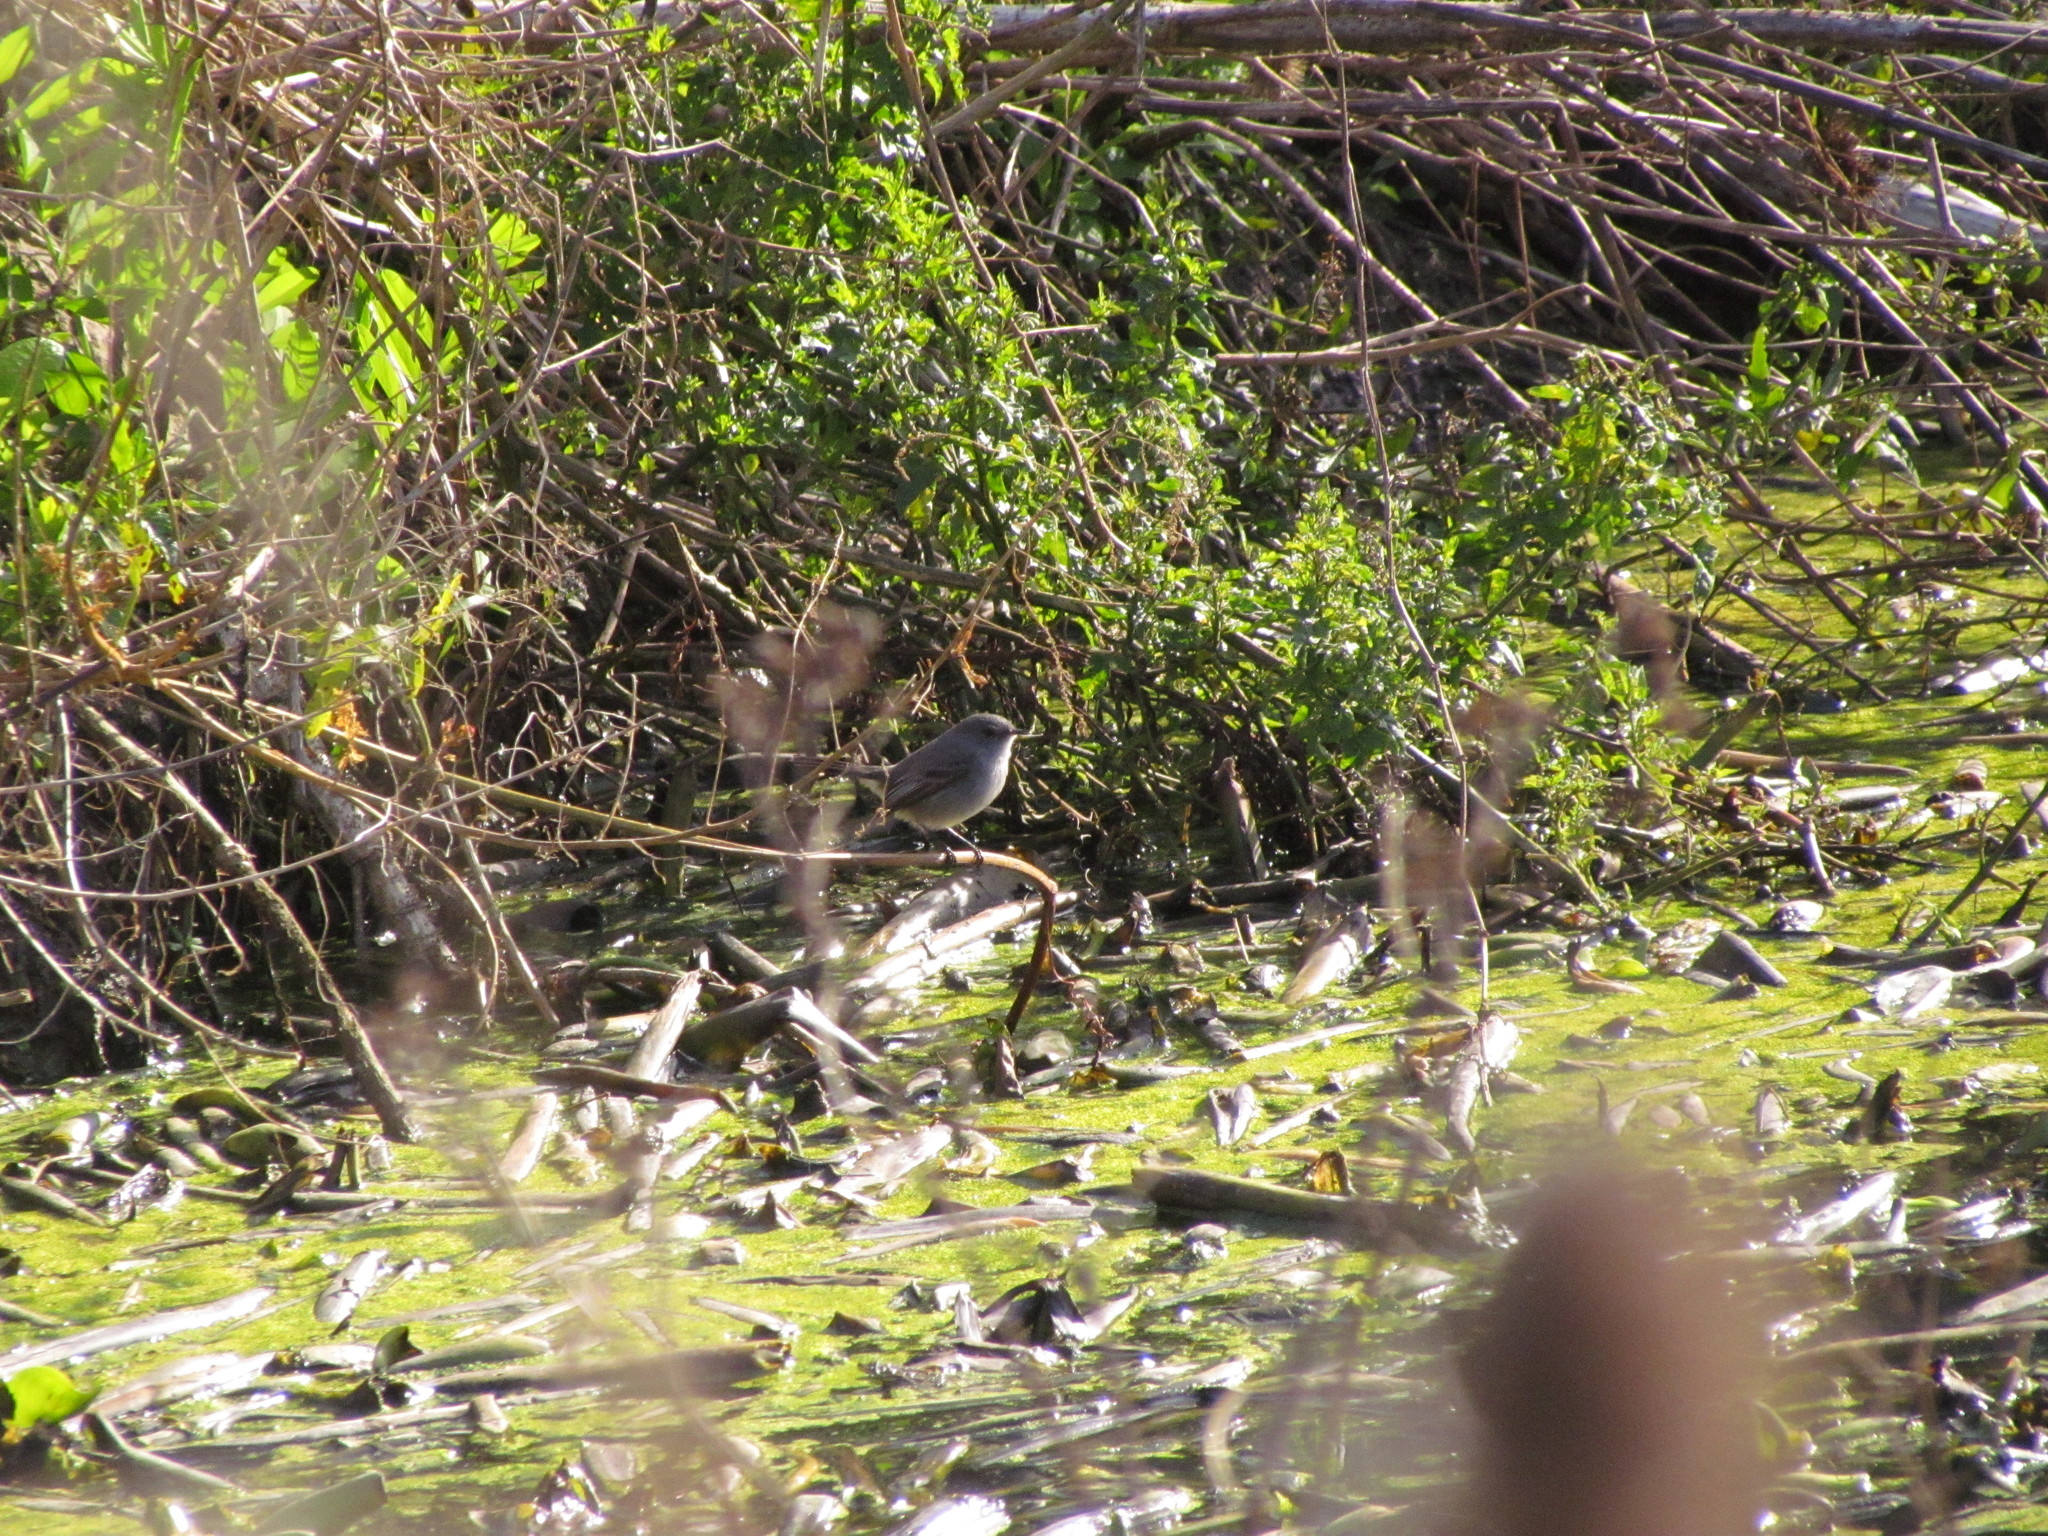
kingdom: Animalia
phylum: Chordata
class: Aves
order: Passeriformes
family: Tyrannidae
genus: Serpophaga
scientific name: Serpophaga nigricans
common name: Sooty tyrannulet
